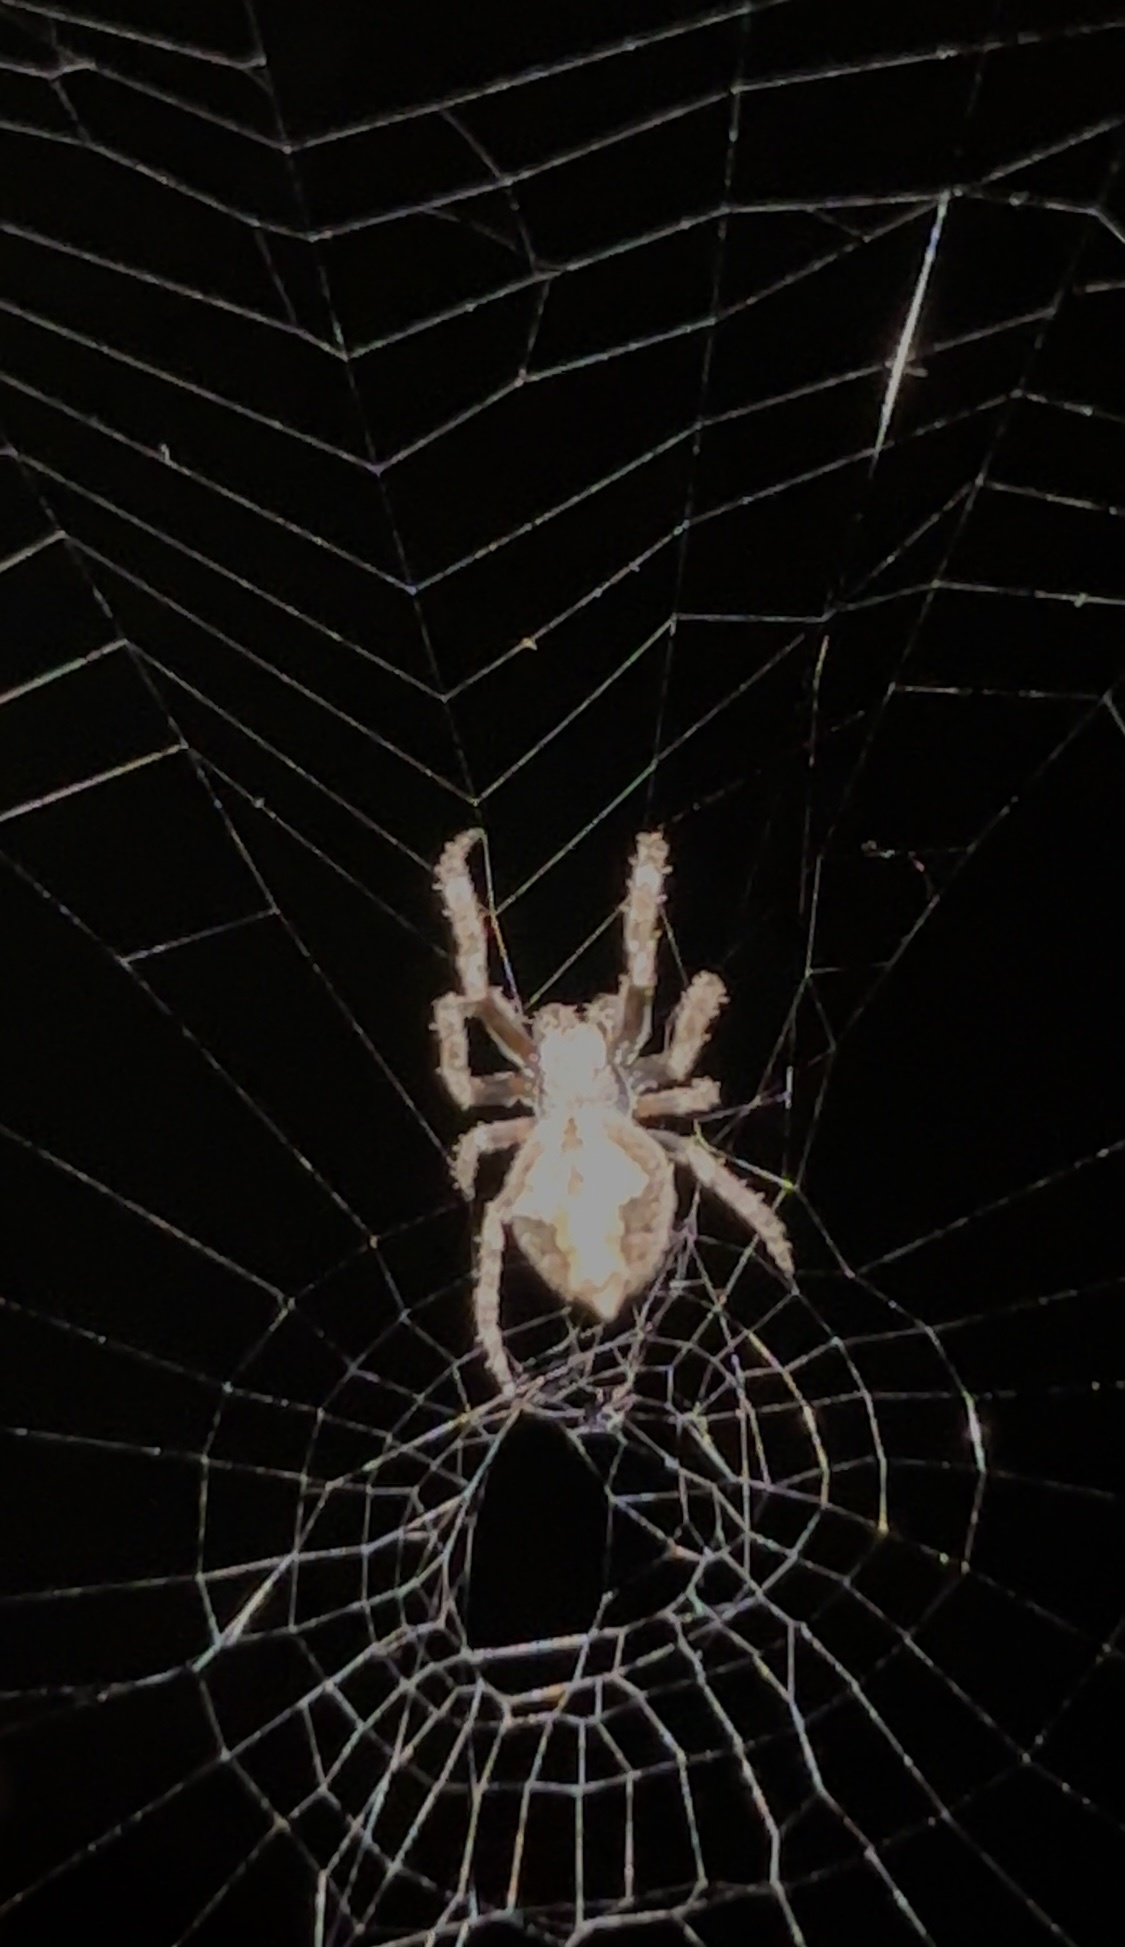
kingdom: Animalia
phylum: Arthropoda
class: Arachnida
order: Araneae
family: Araneidae
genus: Eriophora
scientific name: Eriophora pustulosa
